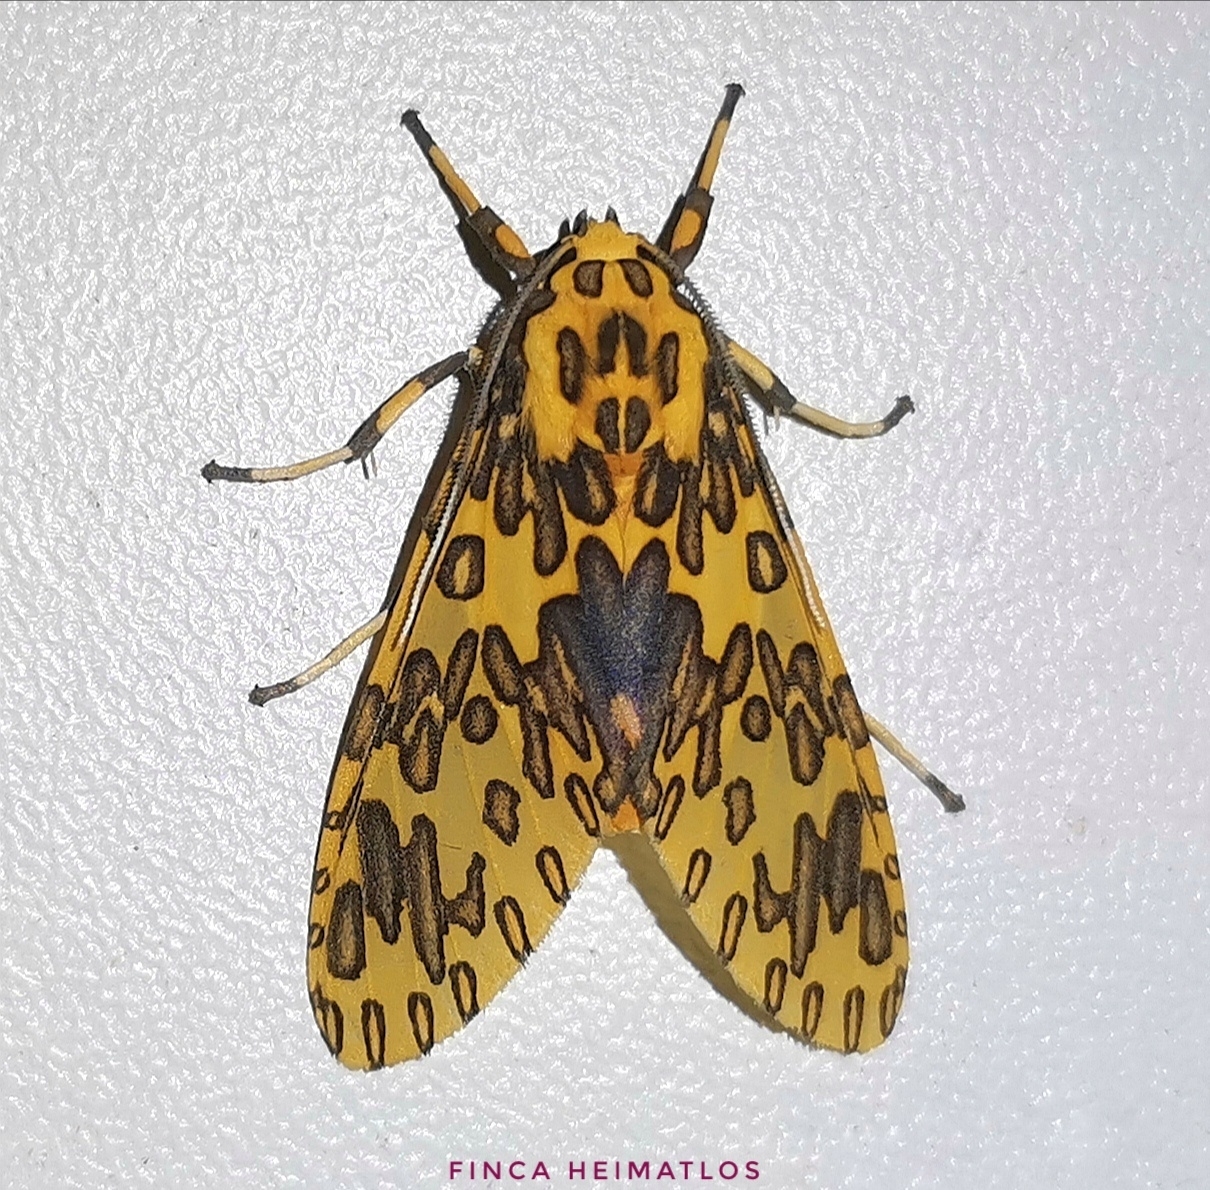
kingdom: Animalia
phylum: Arthropoda
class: Insecta
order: Lepidoptera
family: Erebidae
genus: Amaxia
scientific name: Amaxia pandama
